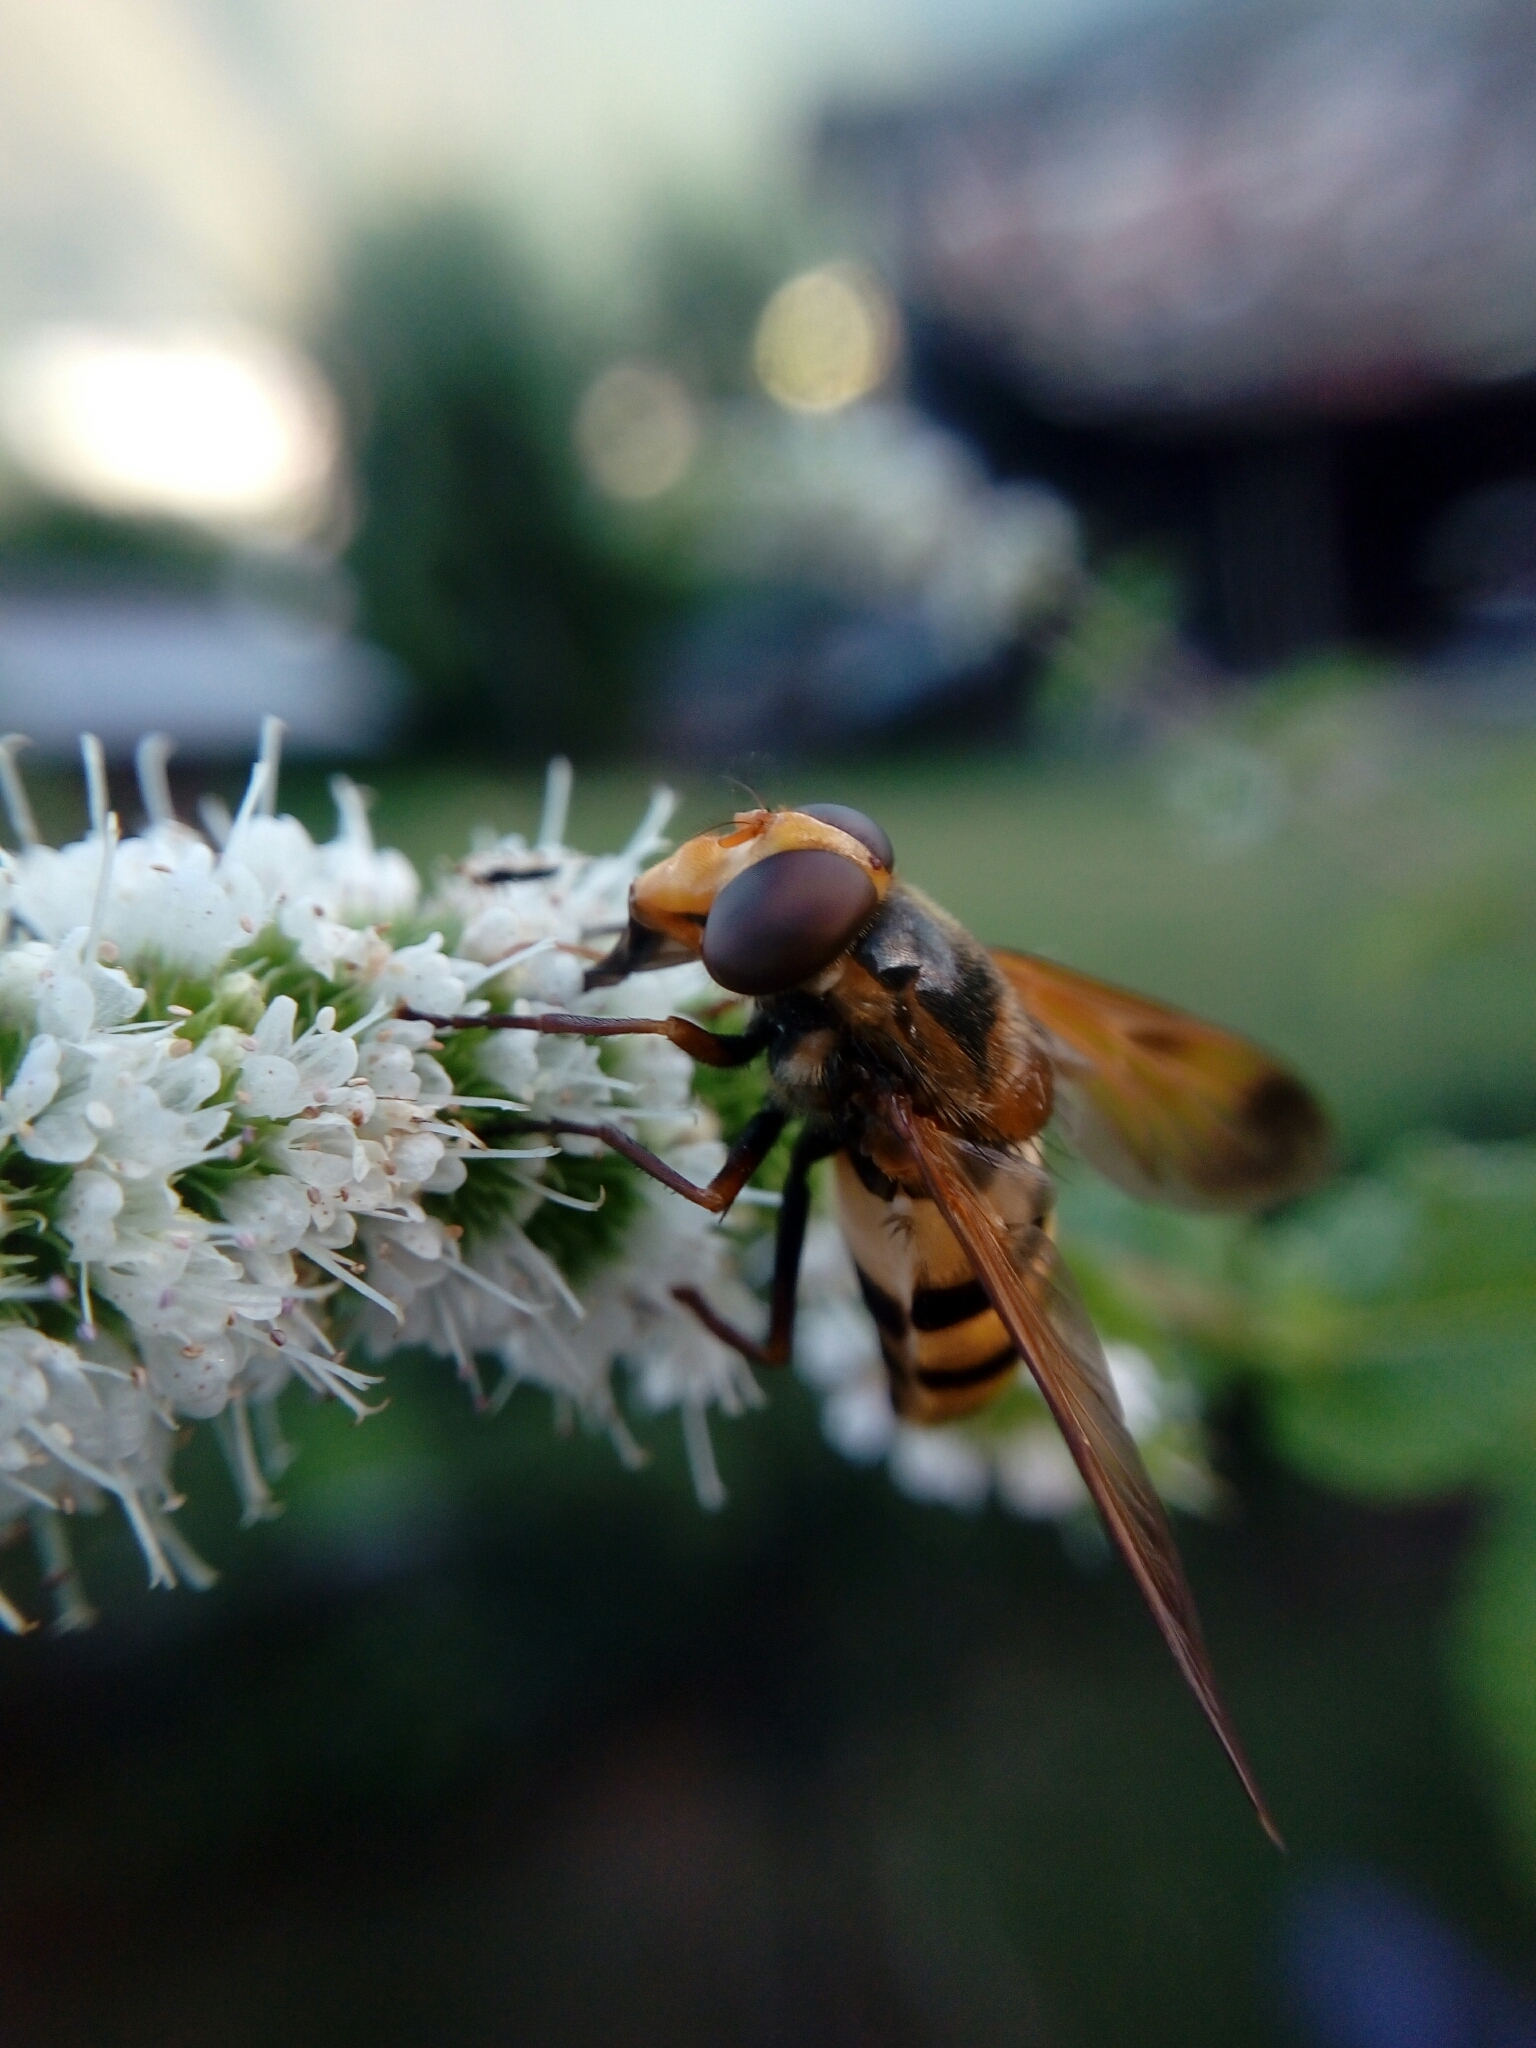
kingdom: Animalia
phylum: Arthropoda
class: Insecta
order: Diptera
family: Syrphidae
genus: Volucella
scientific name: Volucella inanis
